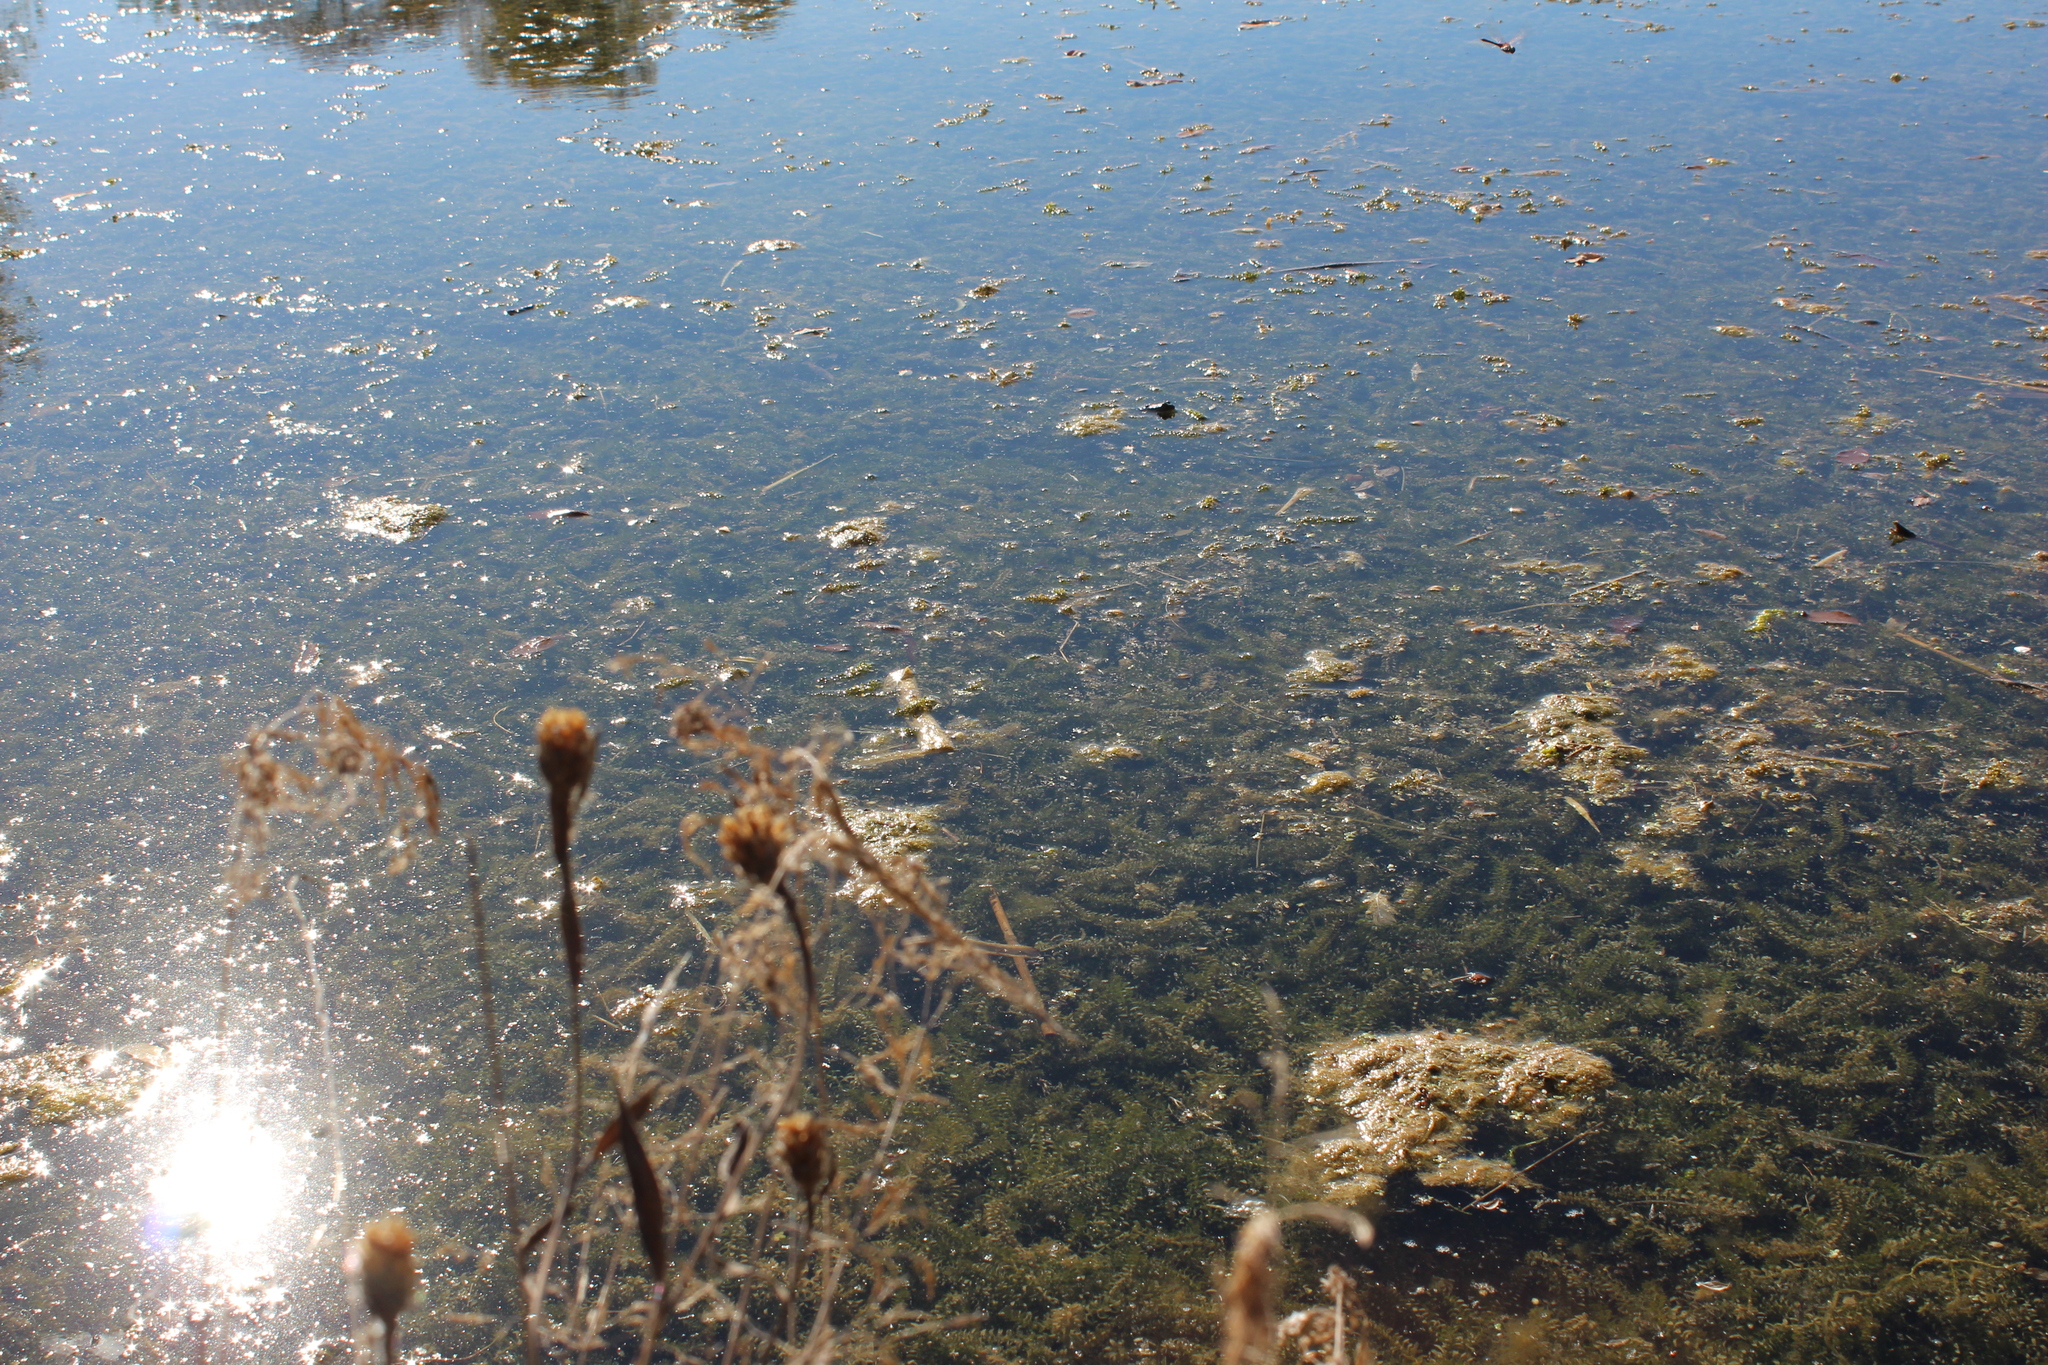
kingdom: Plantae
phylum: Tracheophyta
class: Liliopsida
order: Alismatales
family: Hydrocharitaceae
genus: Elodea
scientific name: Elodea canadensis
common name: Canadian waterweed
